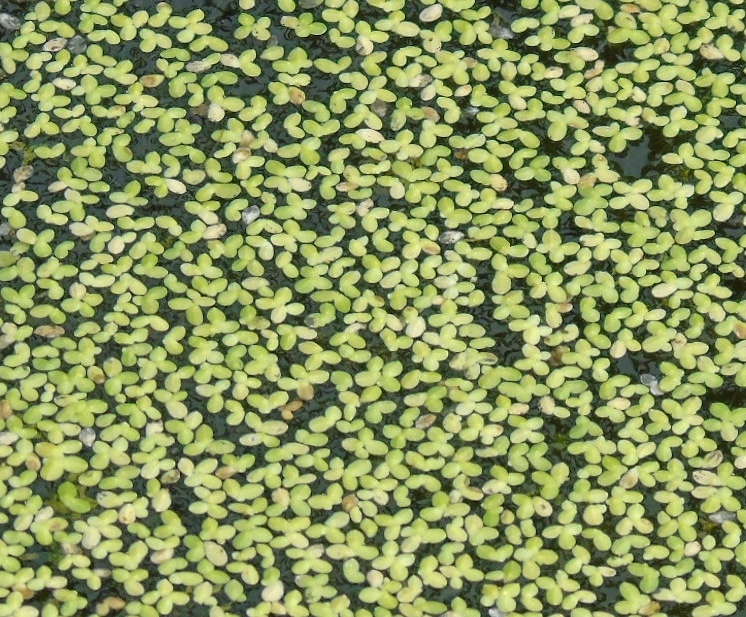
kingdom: Plantae
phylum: Tracheophyta
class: Liliopsida
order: Alismatales
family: Araceae
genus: Lemna
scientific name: Lemna
